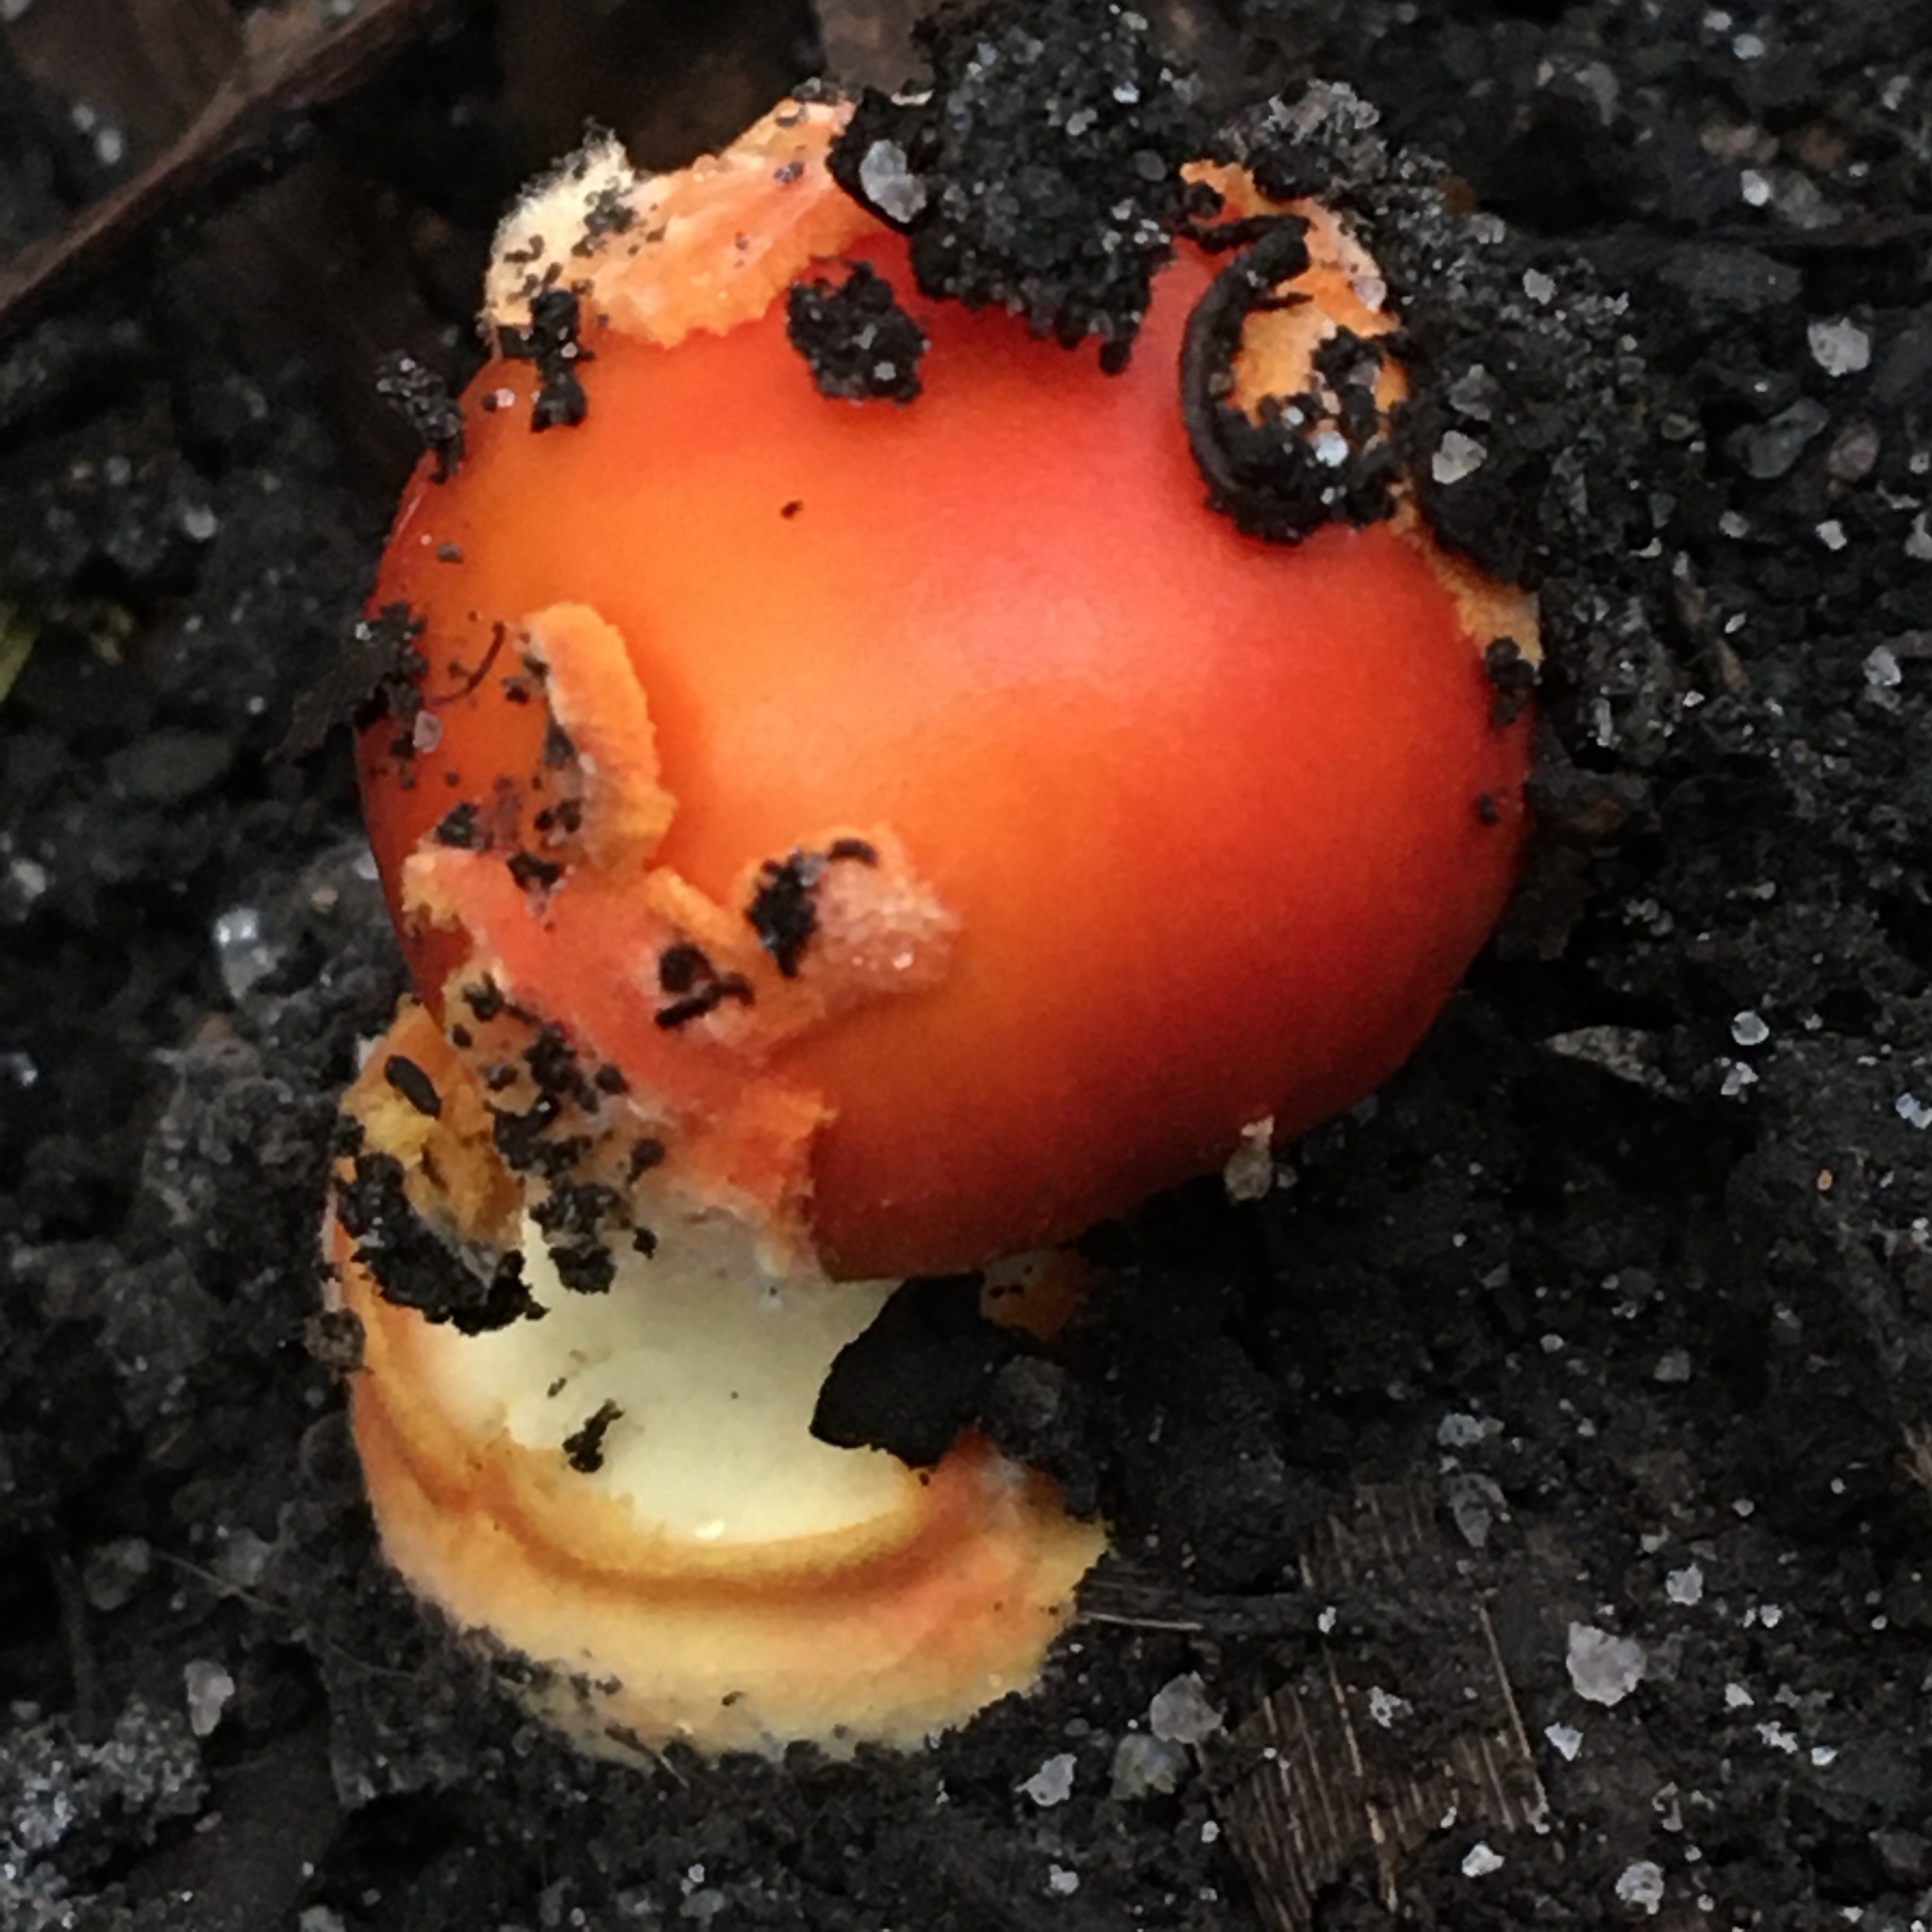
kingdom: Fungi
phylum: Basidiomycota
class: Agaricomycetes
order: Agaricales
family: Amanitaceae
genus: Amanita
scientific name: Amanita xanthocephala
